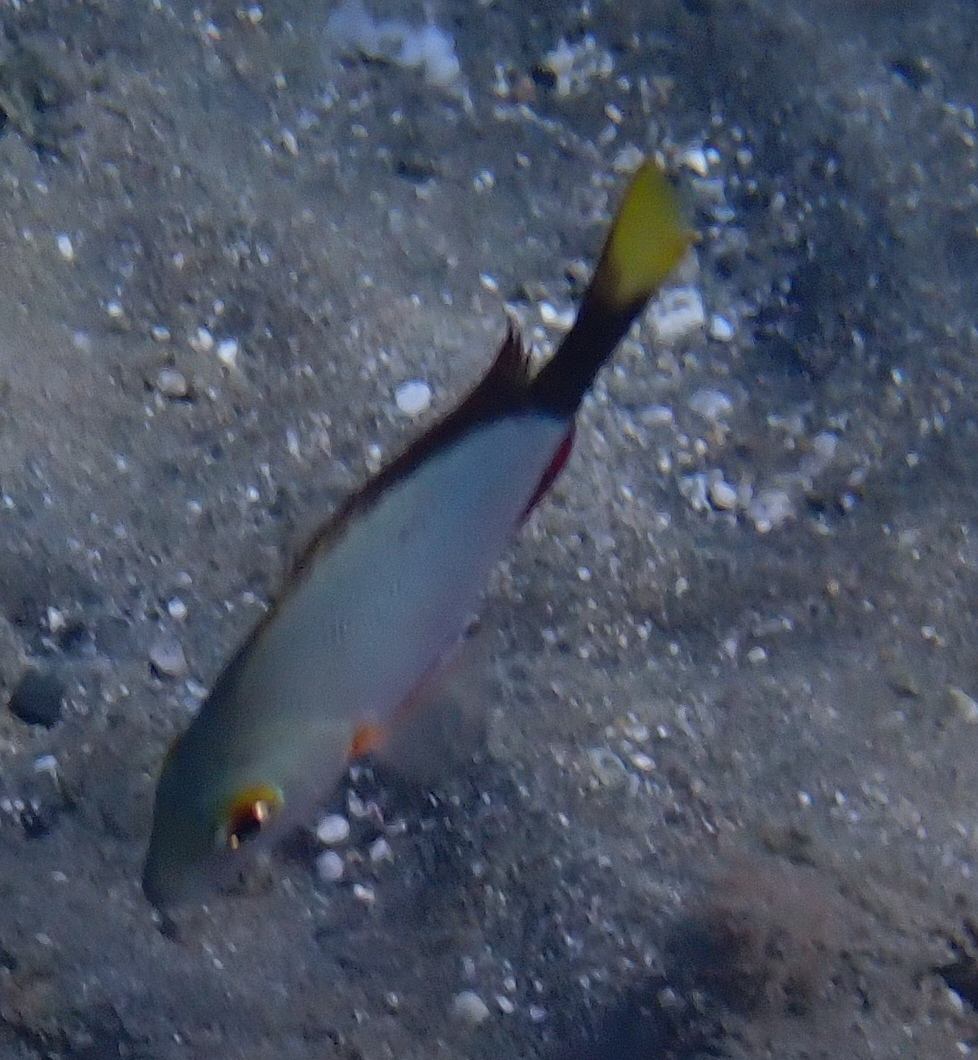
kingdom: Animalia
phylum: Chordata
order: Perciformes
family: Lutjanidae
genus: Lutjanus
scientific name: Lutjanus gibbus
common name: Humpback snapper
